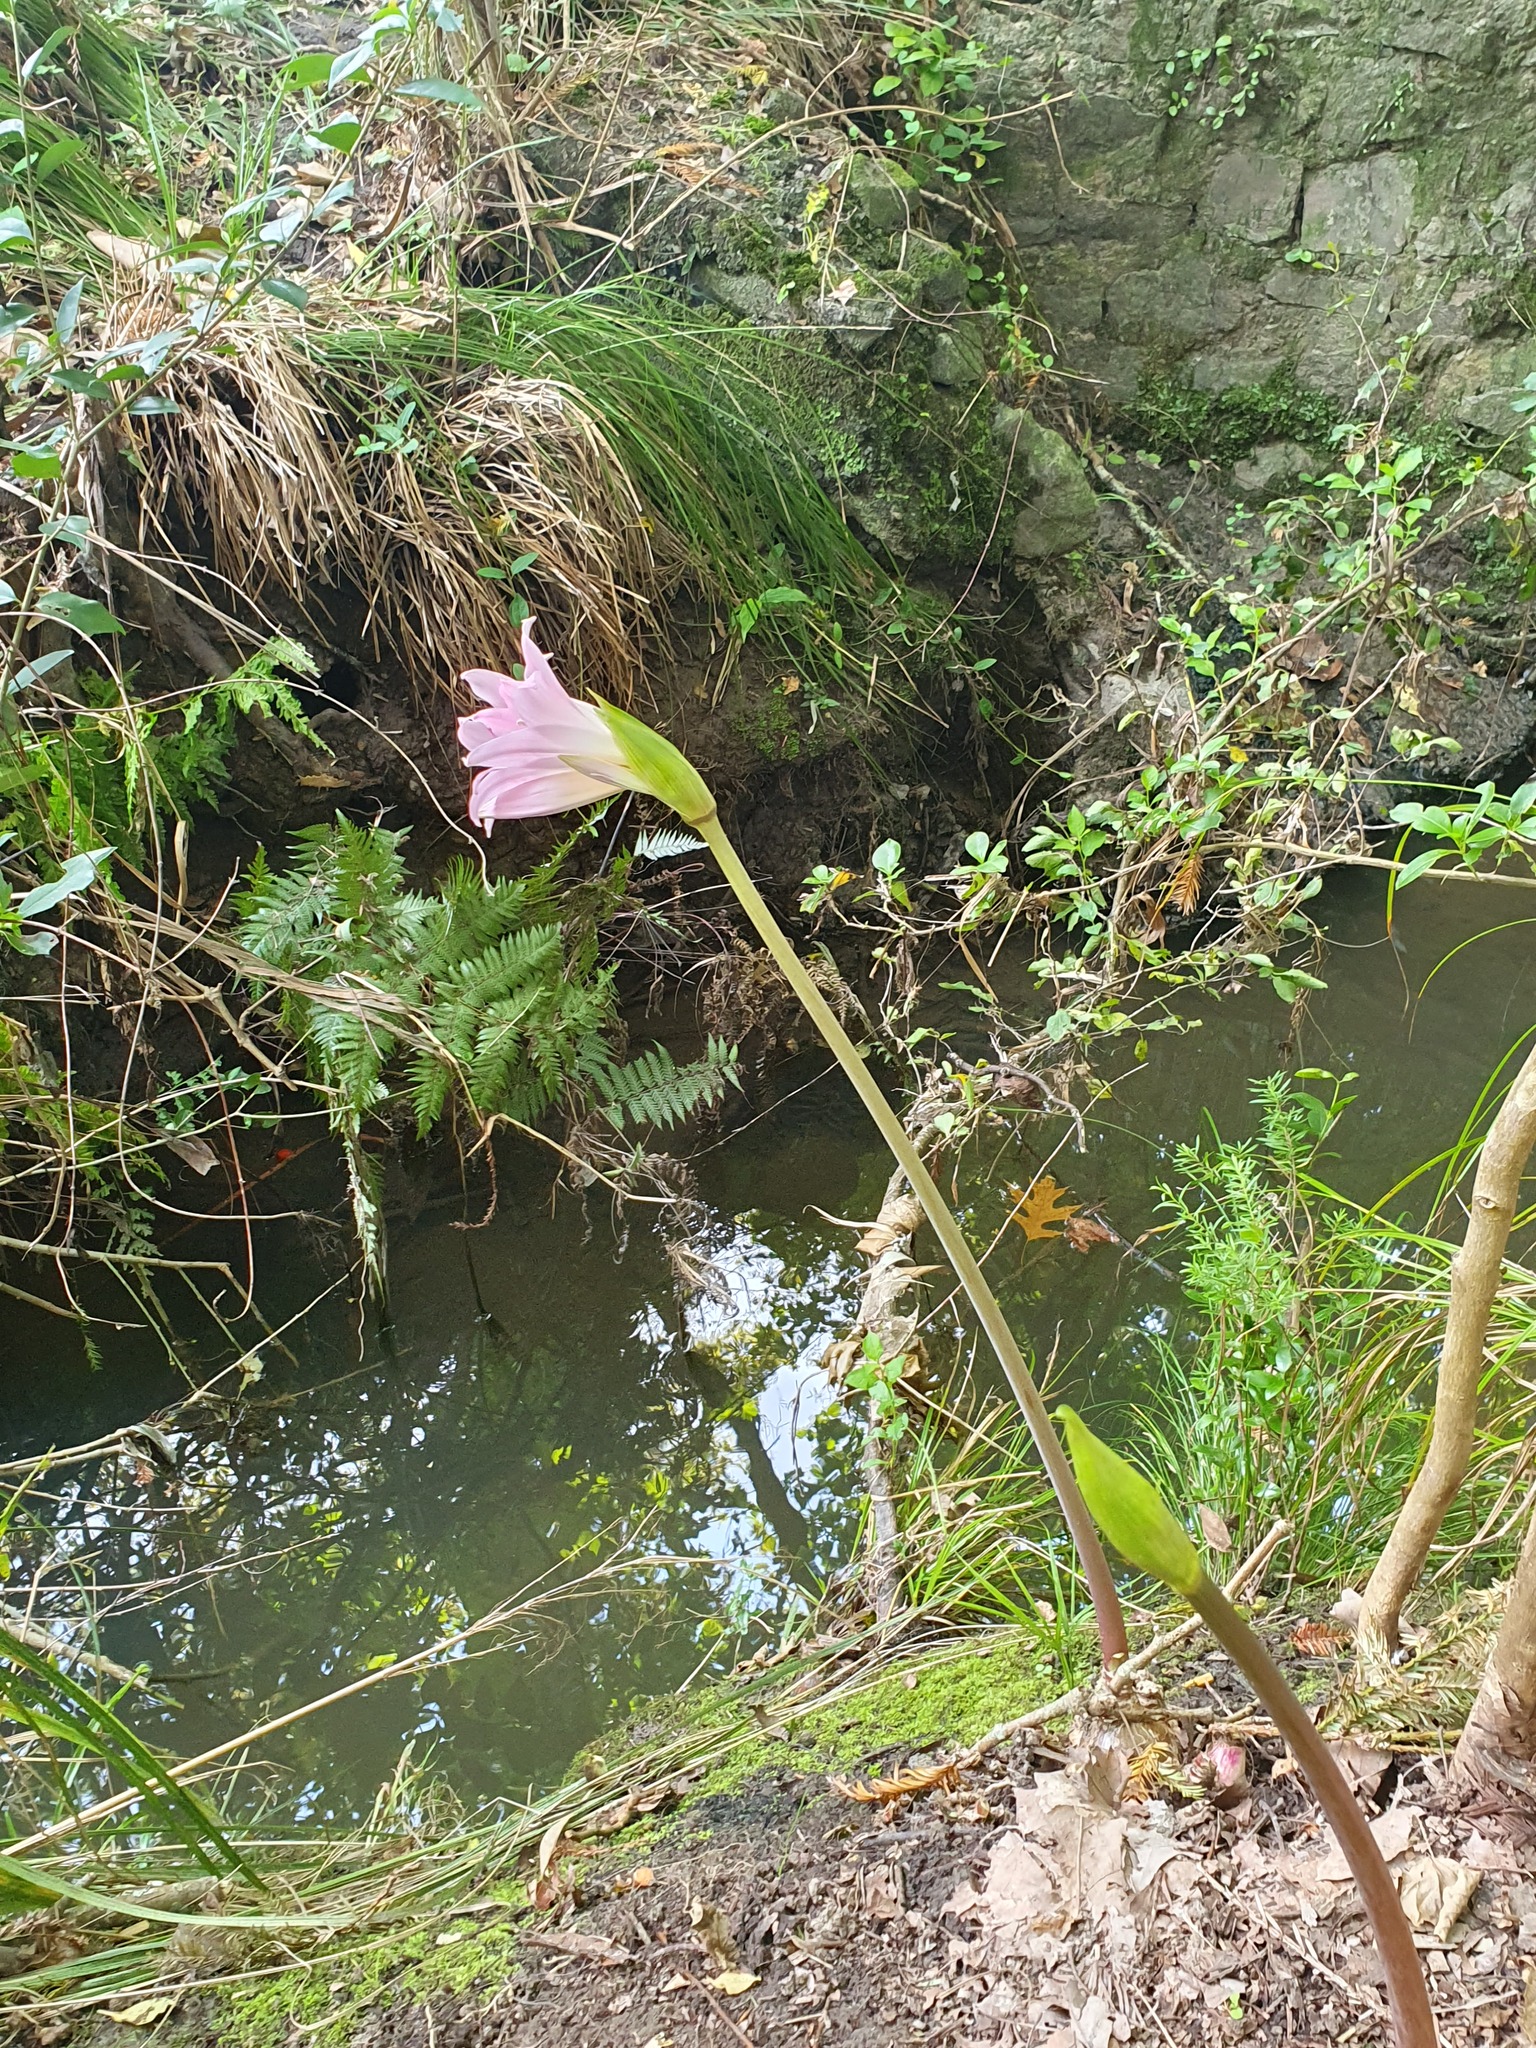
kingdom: Plantae
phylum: Tracheophyta
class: Liliopsida
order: Asparagales
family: Amaryllidaceae
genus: Amaryllis
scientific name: Amaryllis belladonna
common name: Jersey lily
